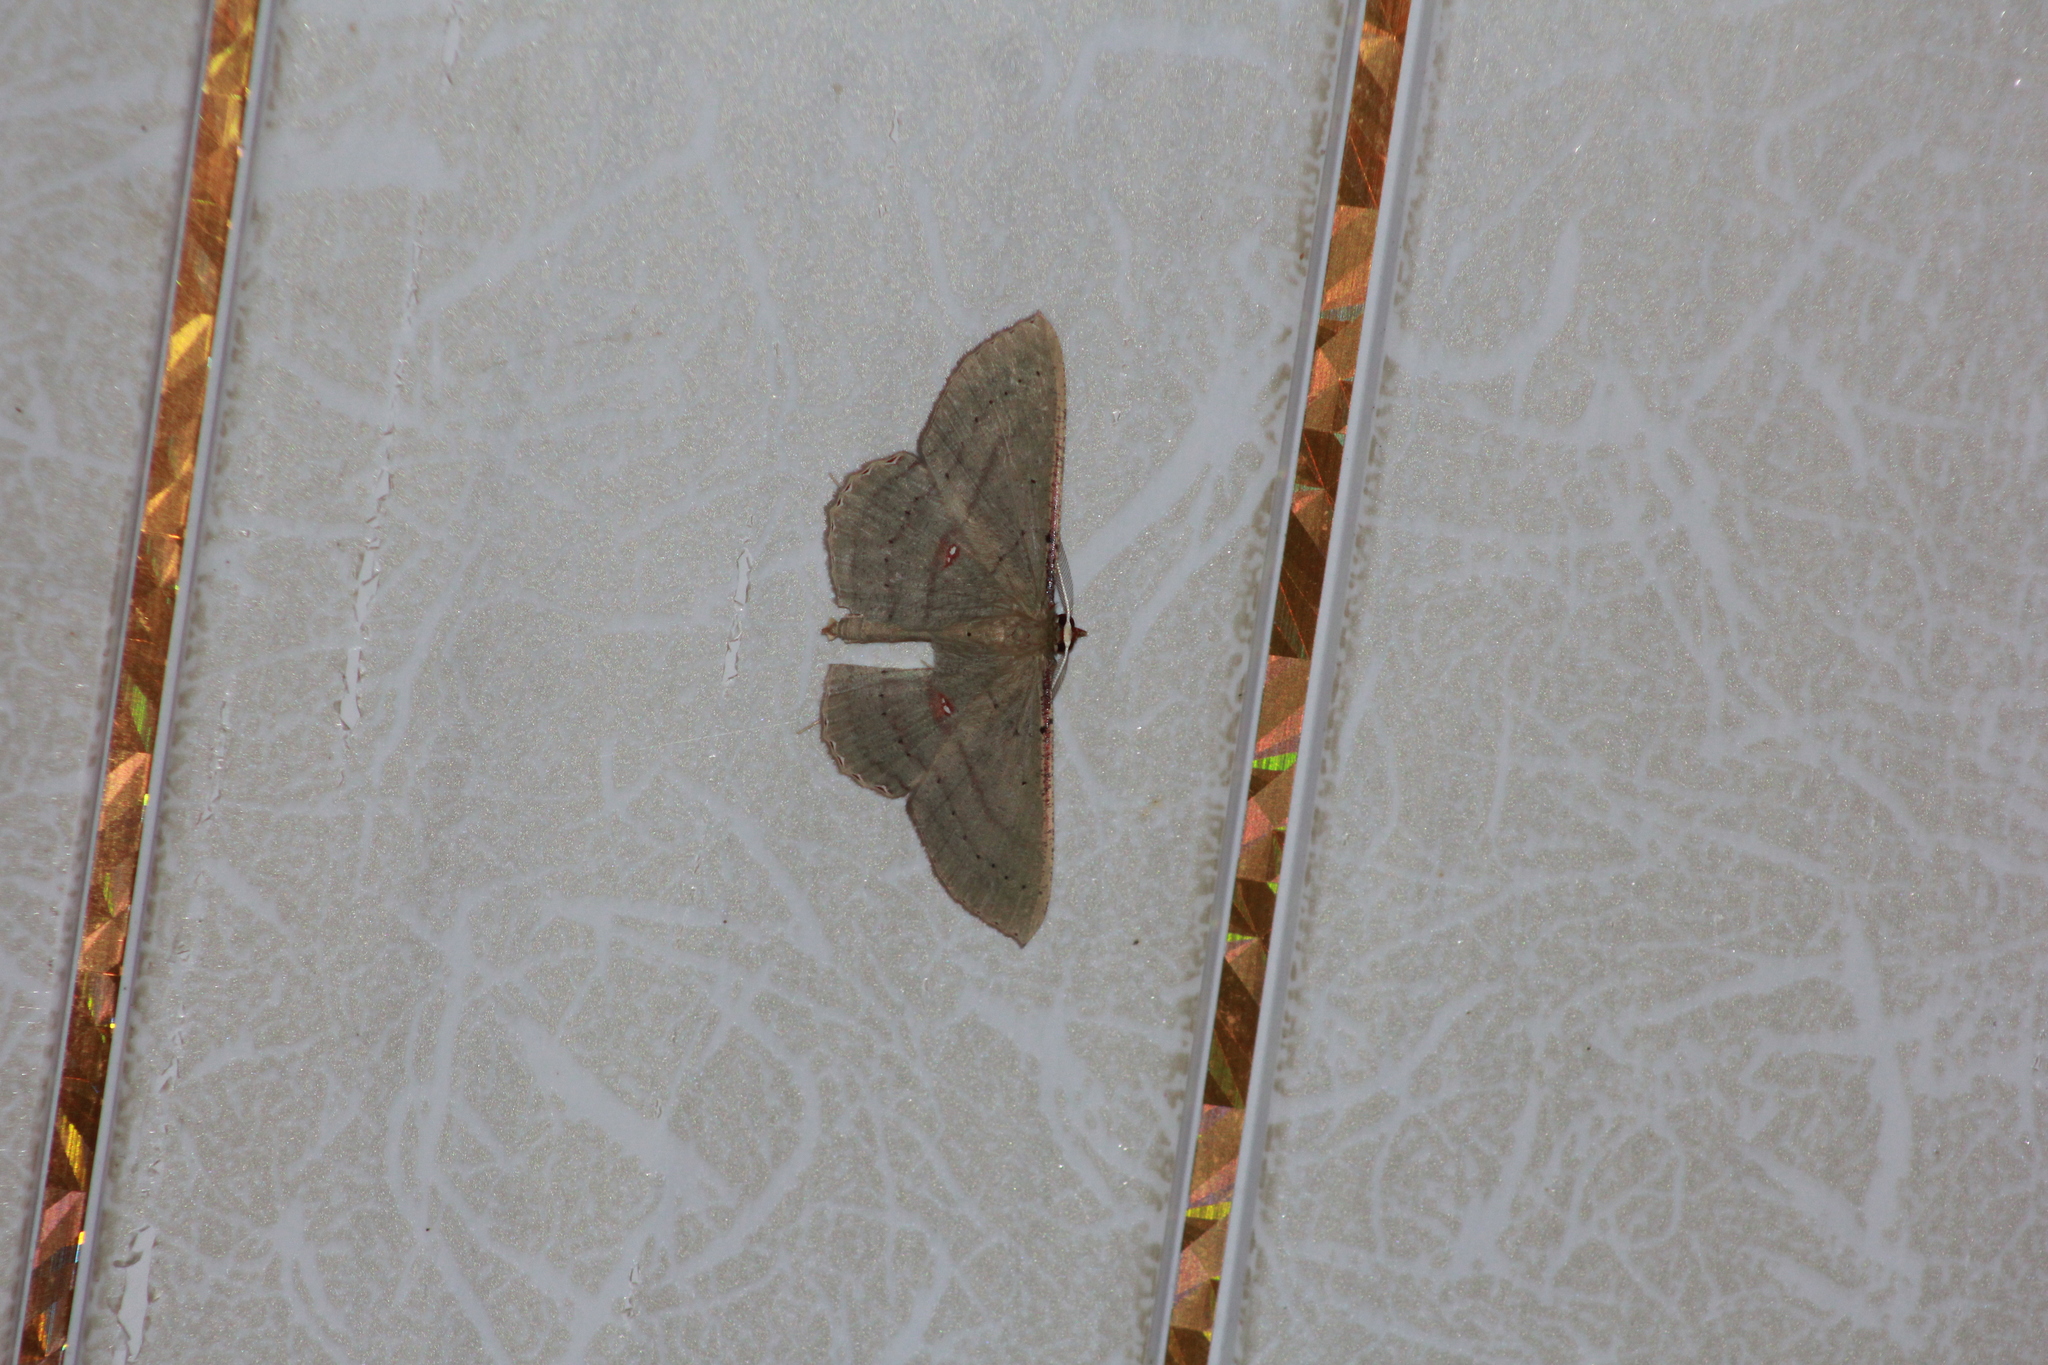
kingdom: Animalia
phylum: Arthropoda
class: Insecta
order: Lepidoptera
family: Geometridae
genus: Ametris
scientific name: Ametris nitocris
